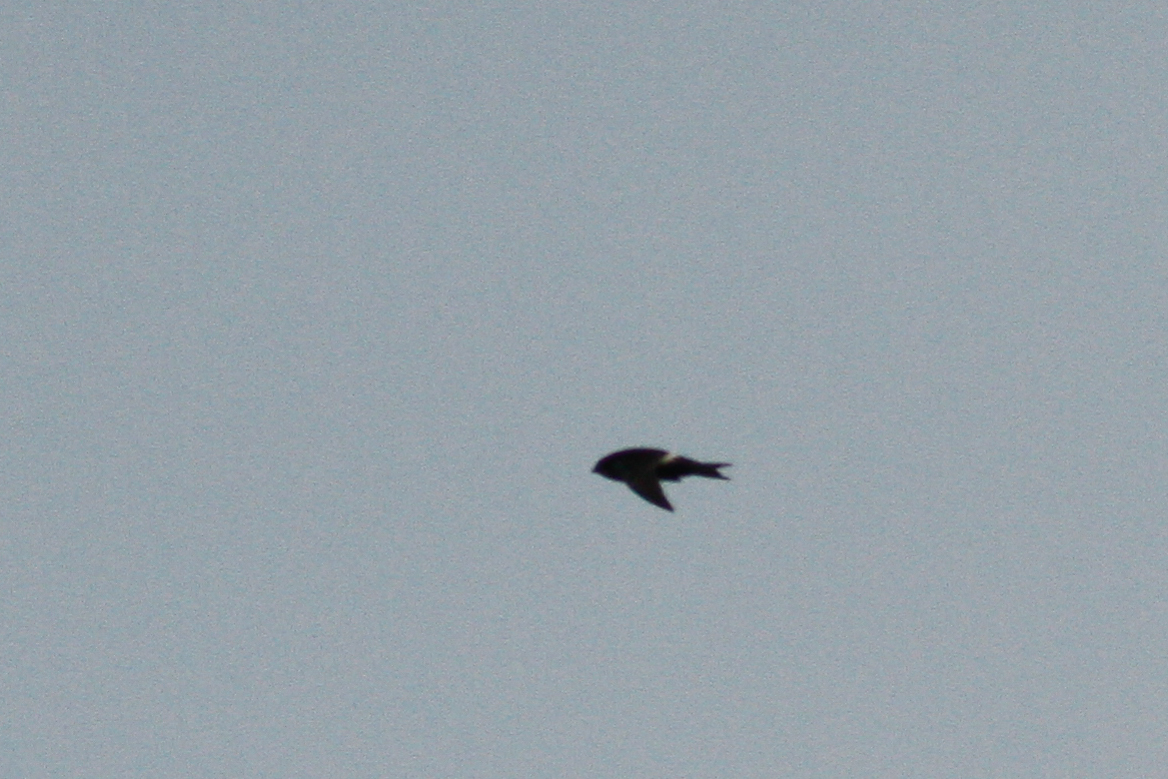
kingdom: Animalia
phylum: Chordata
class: Aves
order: Apodiformes
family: Apodidae
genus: Apus
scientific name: Apus pacificus
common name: Pacific swift
